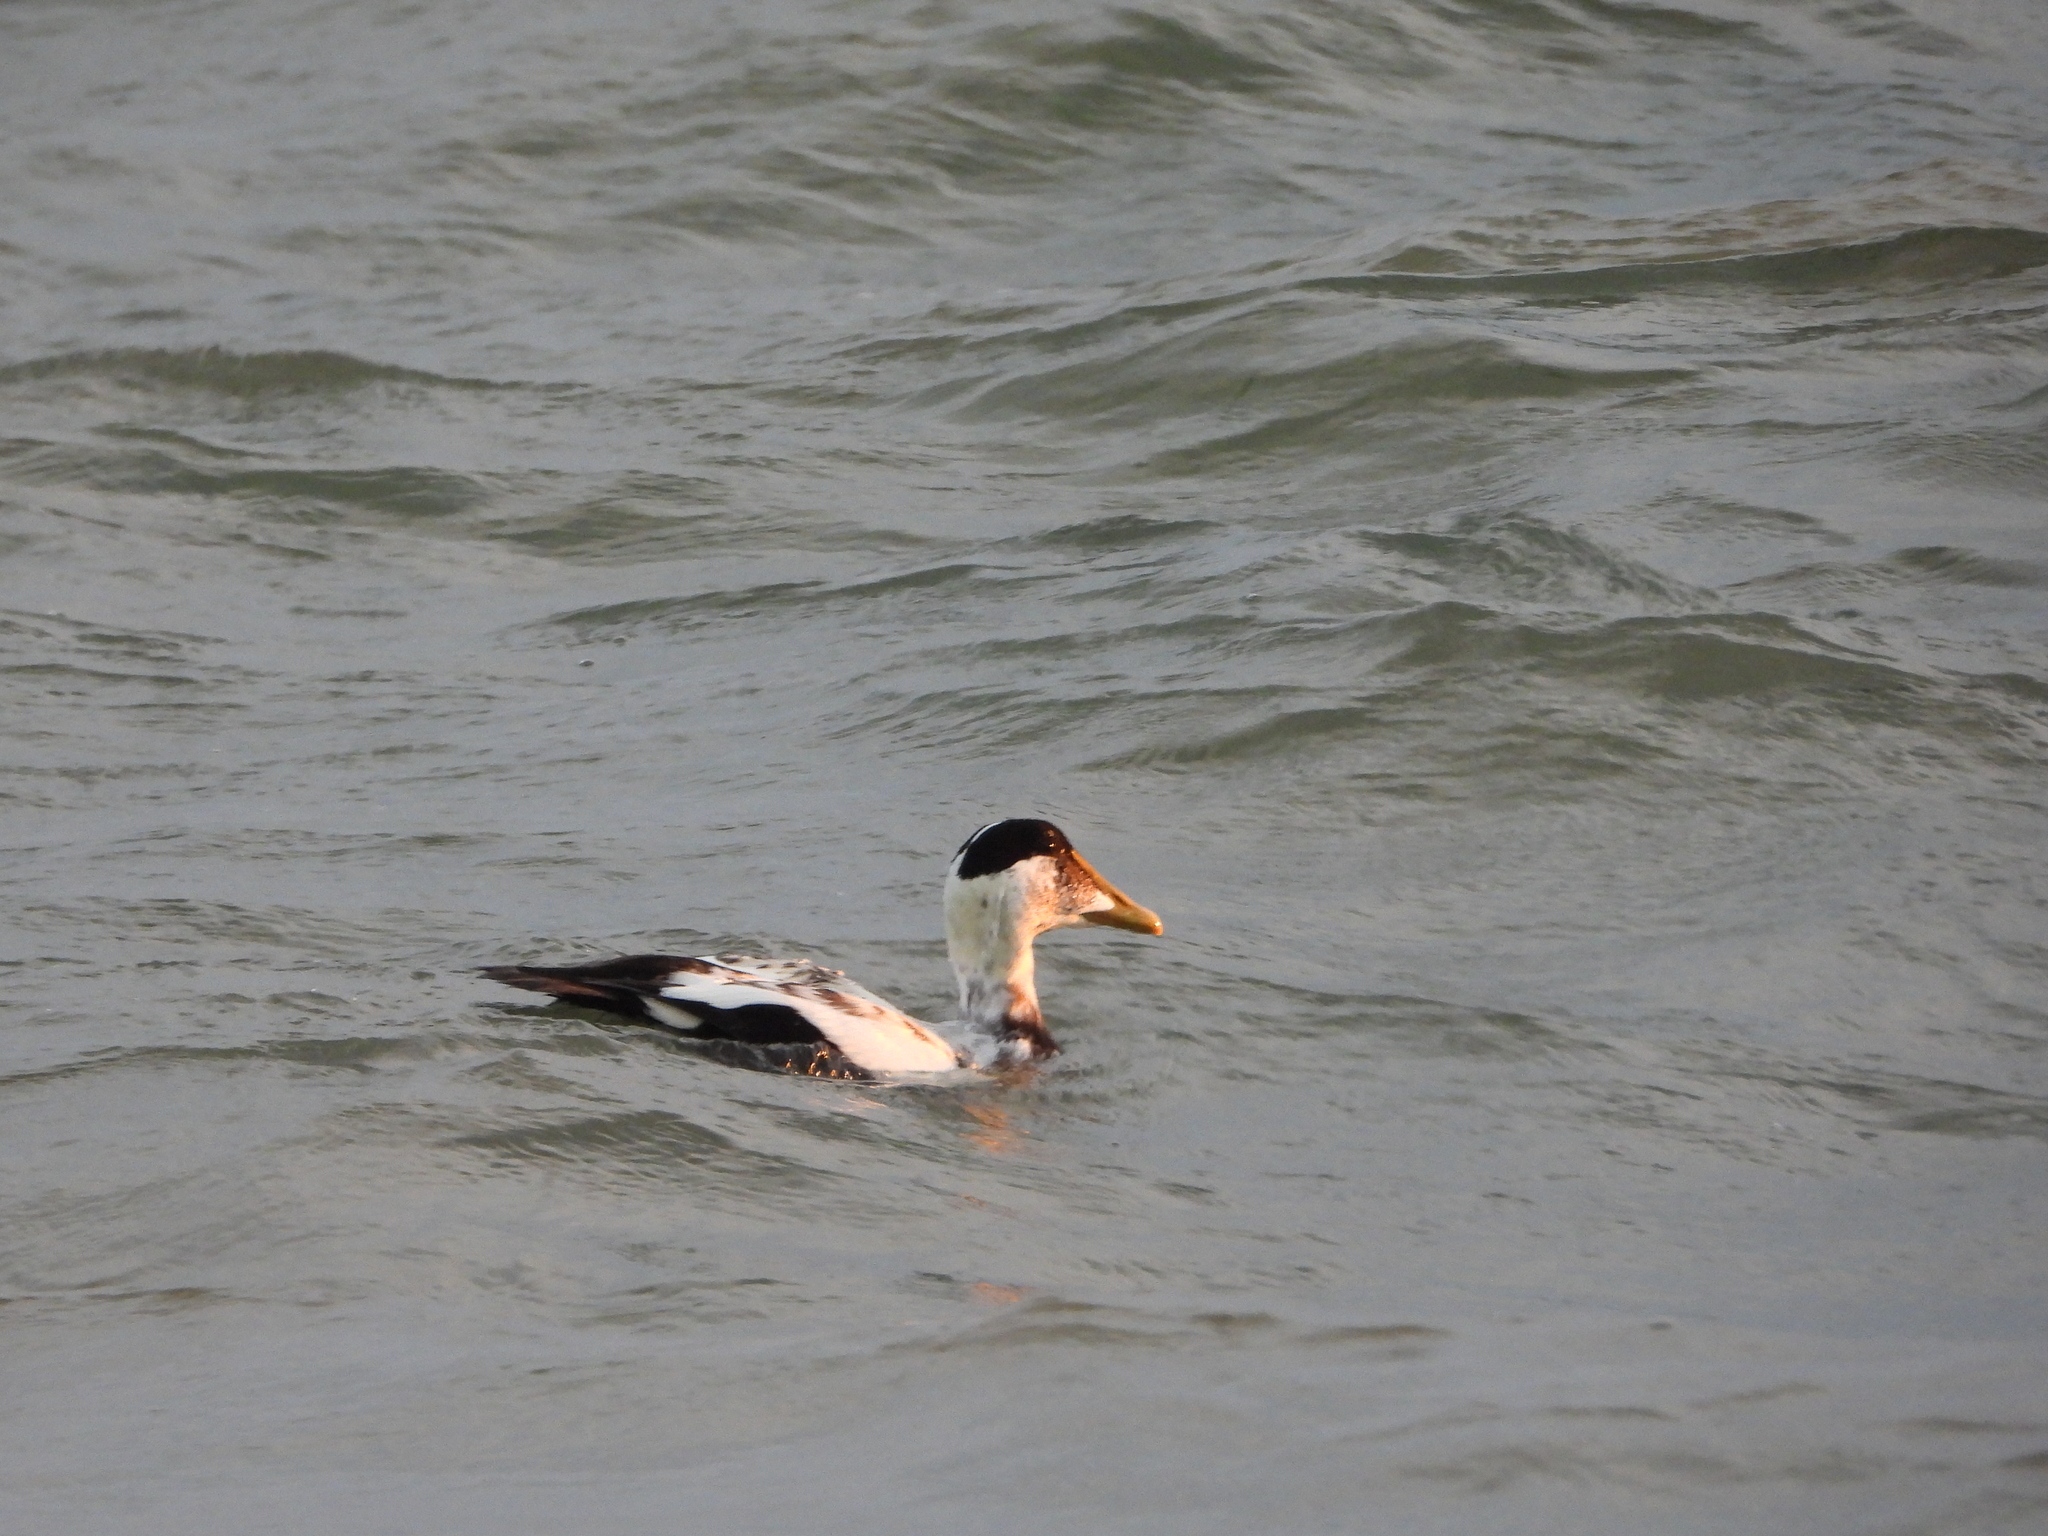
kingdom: Animalia
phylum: Chordata
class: Aves
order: Anseriformes
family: Anatidae
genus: Somateria
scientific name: Somateria mollissima
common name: Common eider
